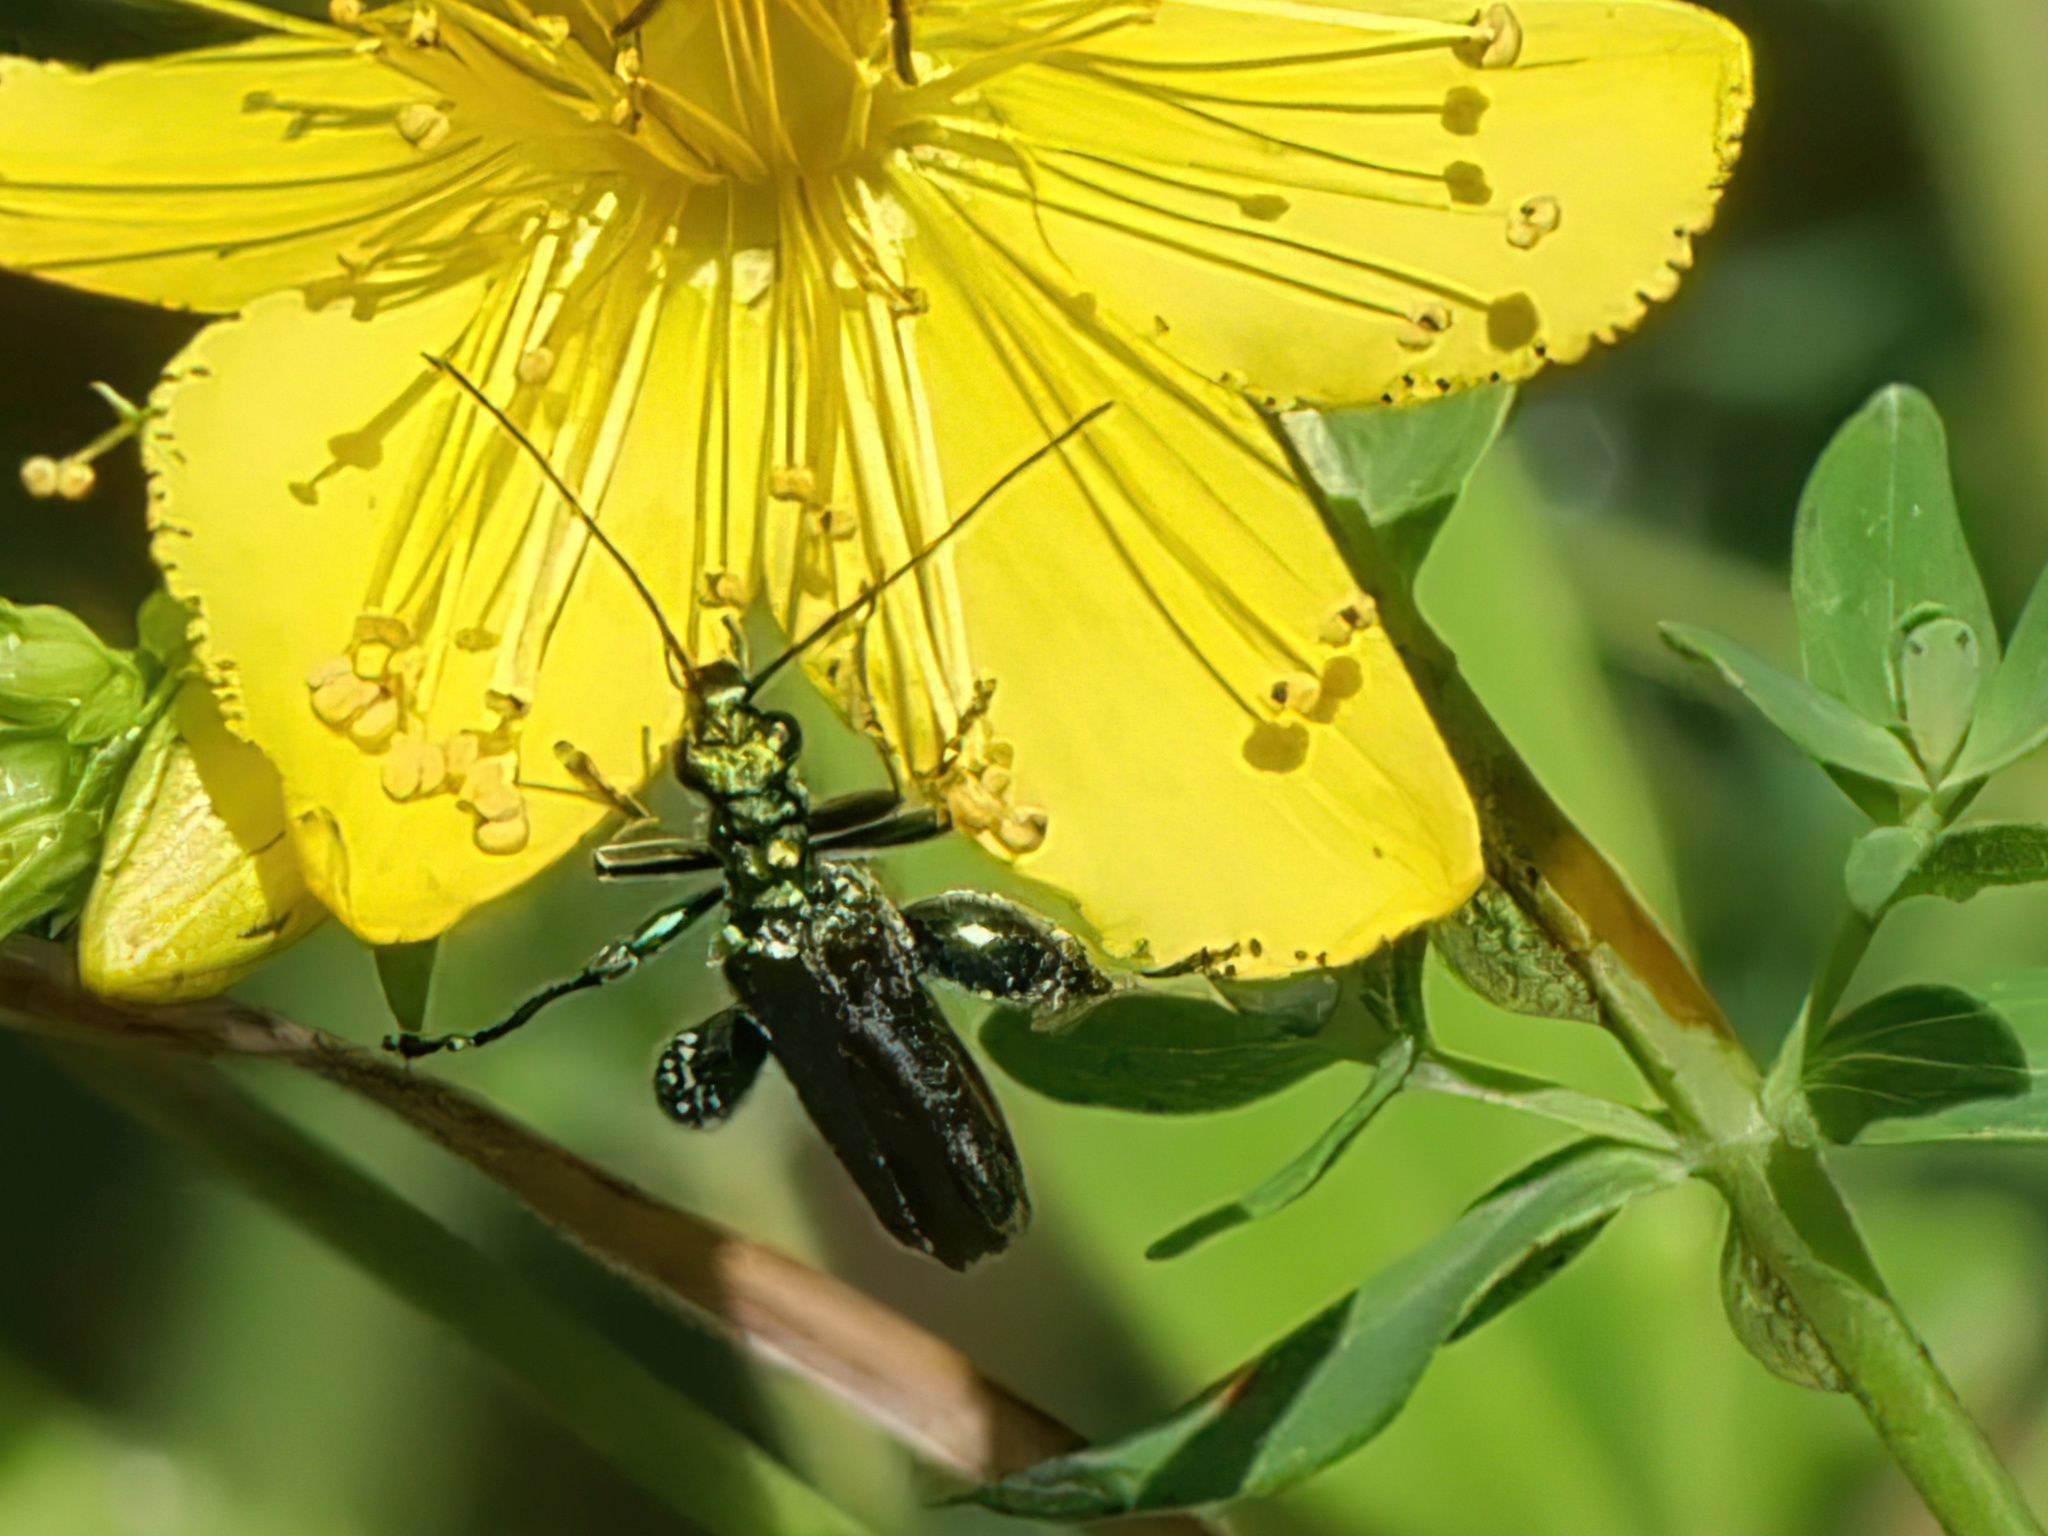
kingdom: Animalia
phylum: Arthropoda
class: Insecta
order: Coleoptera
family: Oedemeridae
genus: Oedemera
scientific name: Oedemera nobilis
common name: Swollen-thighed beetle
